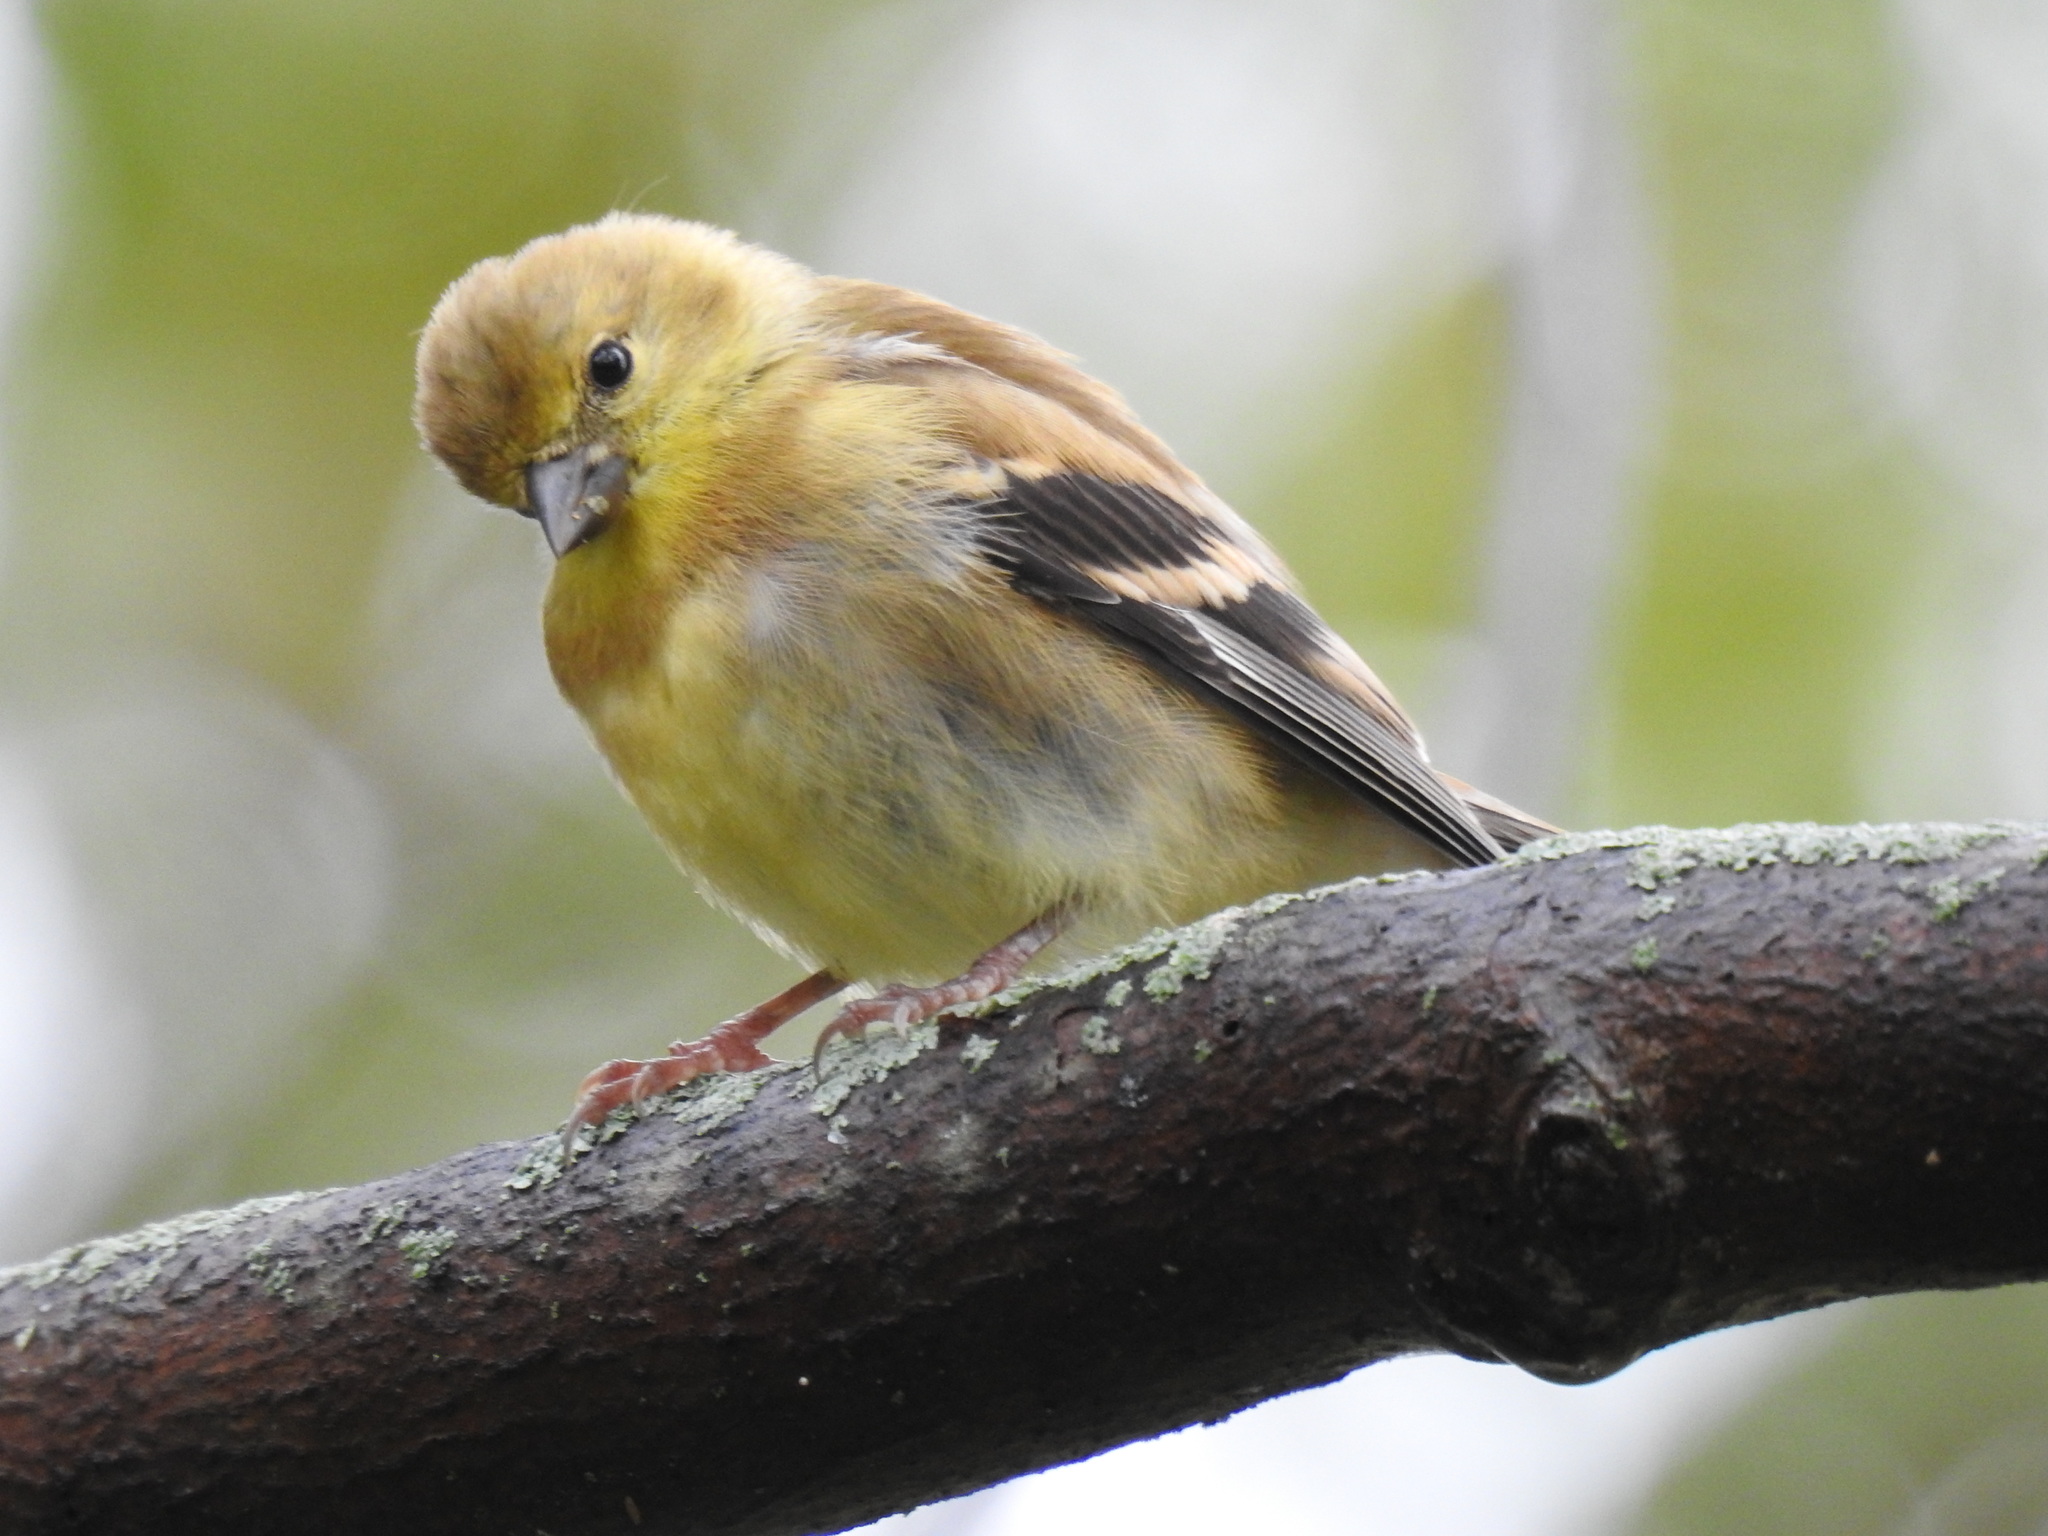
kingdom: Animalia
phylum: Chordata
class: Aves
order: Passeriformes
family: Fringillidae
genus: Spinus
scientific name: Spinus tristis
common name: American goldfinch
